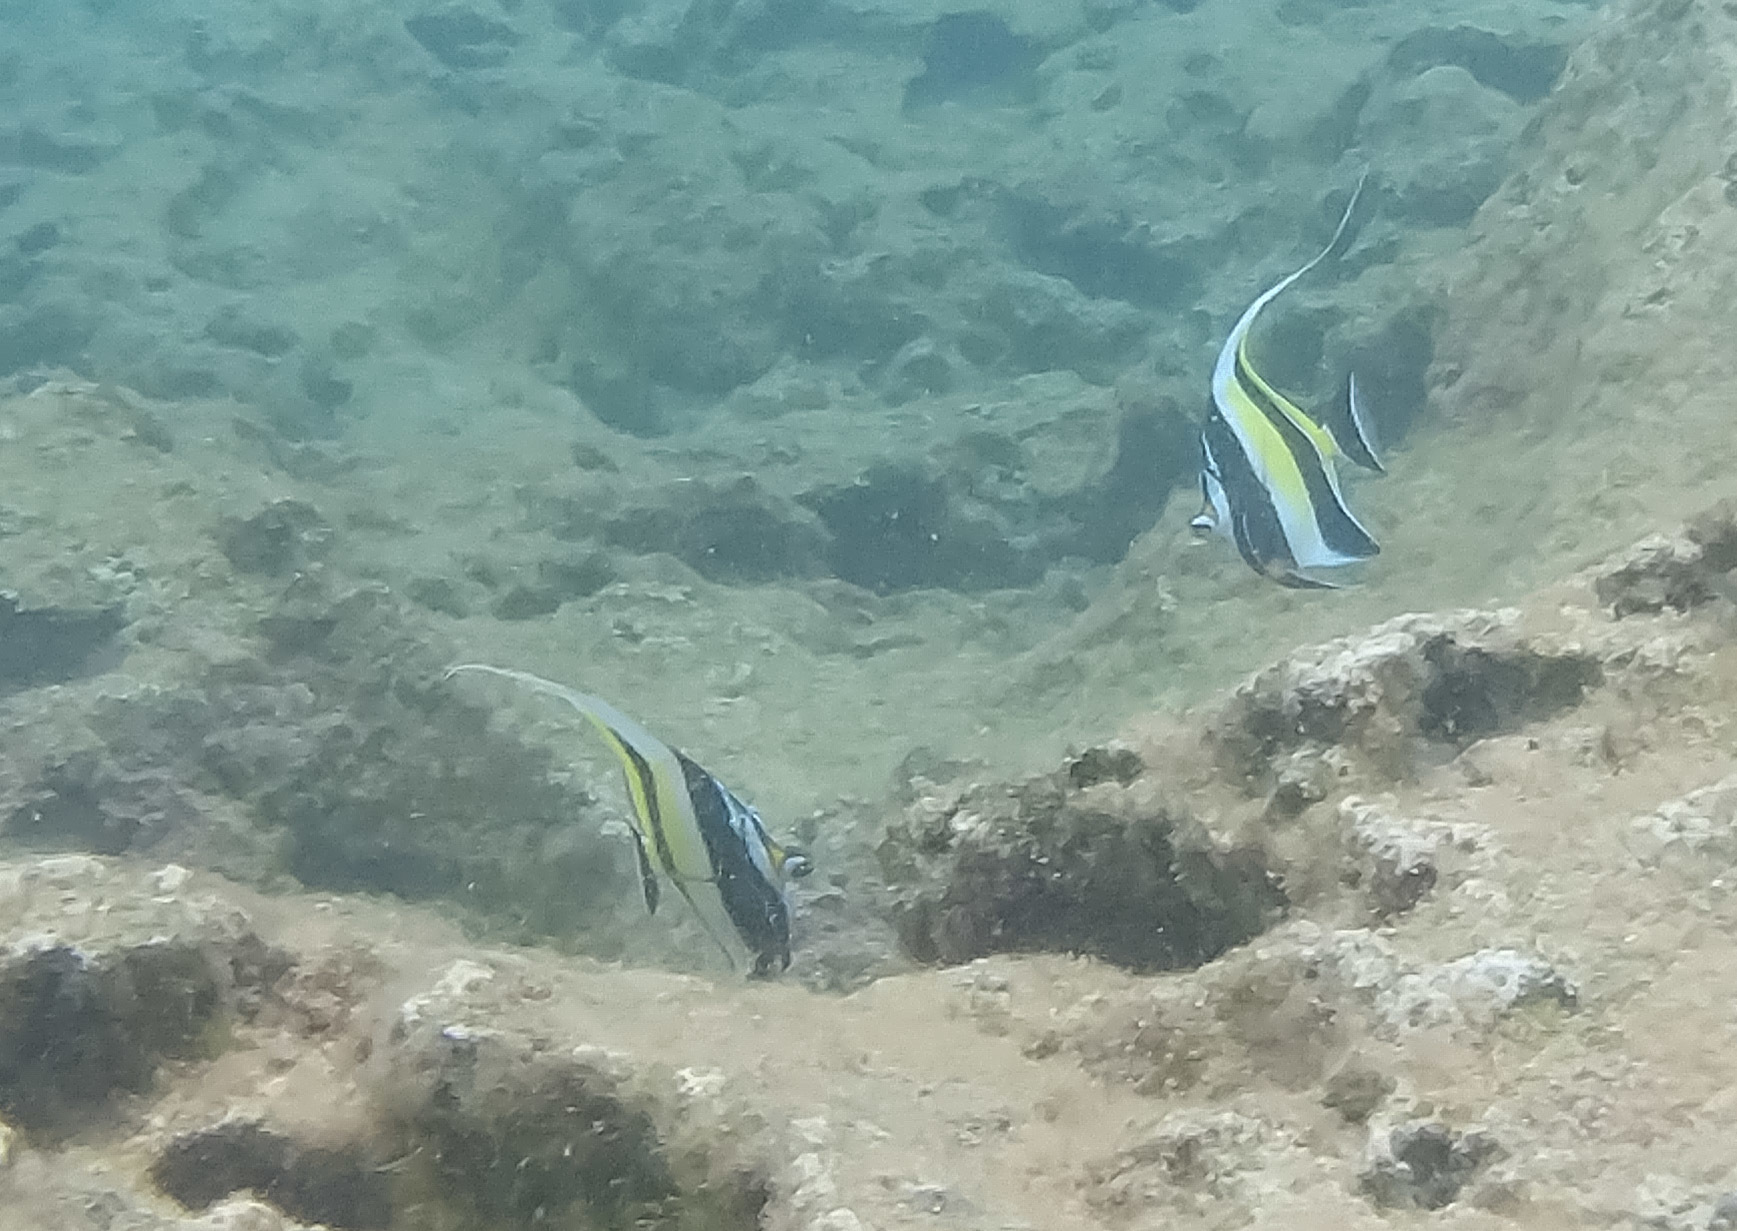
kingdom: Animalia
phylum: Chordata
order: Perciformes
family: Zanclidae
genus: Zanclus
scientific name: Zanclus cornutus
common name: Moorish idol
